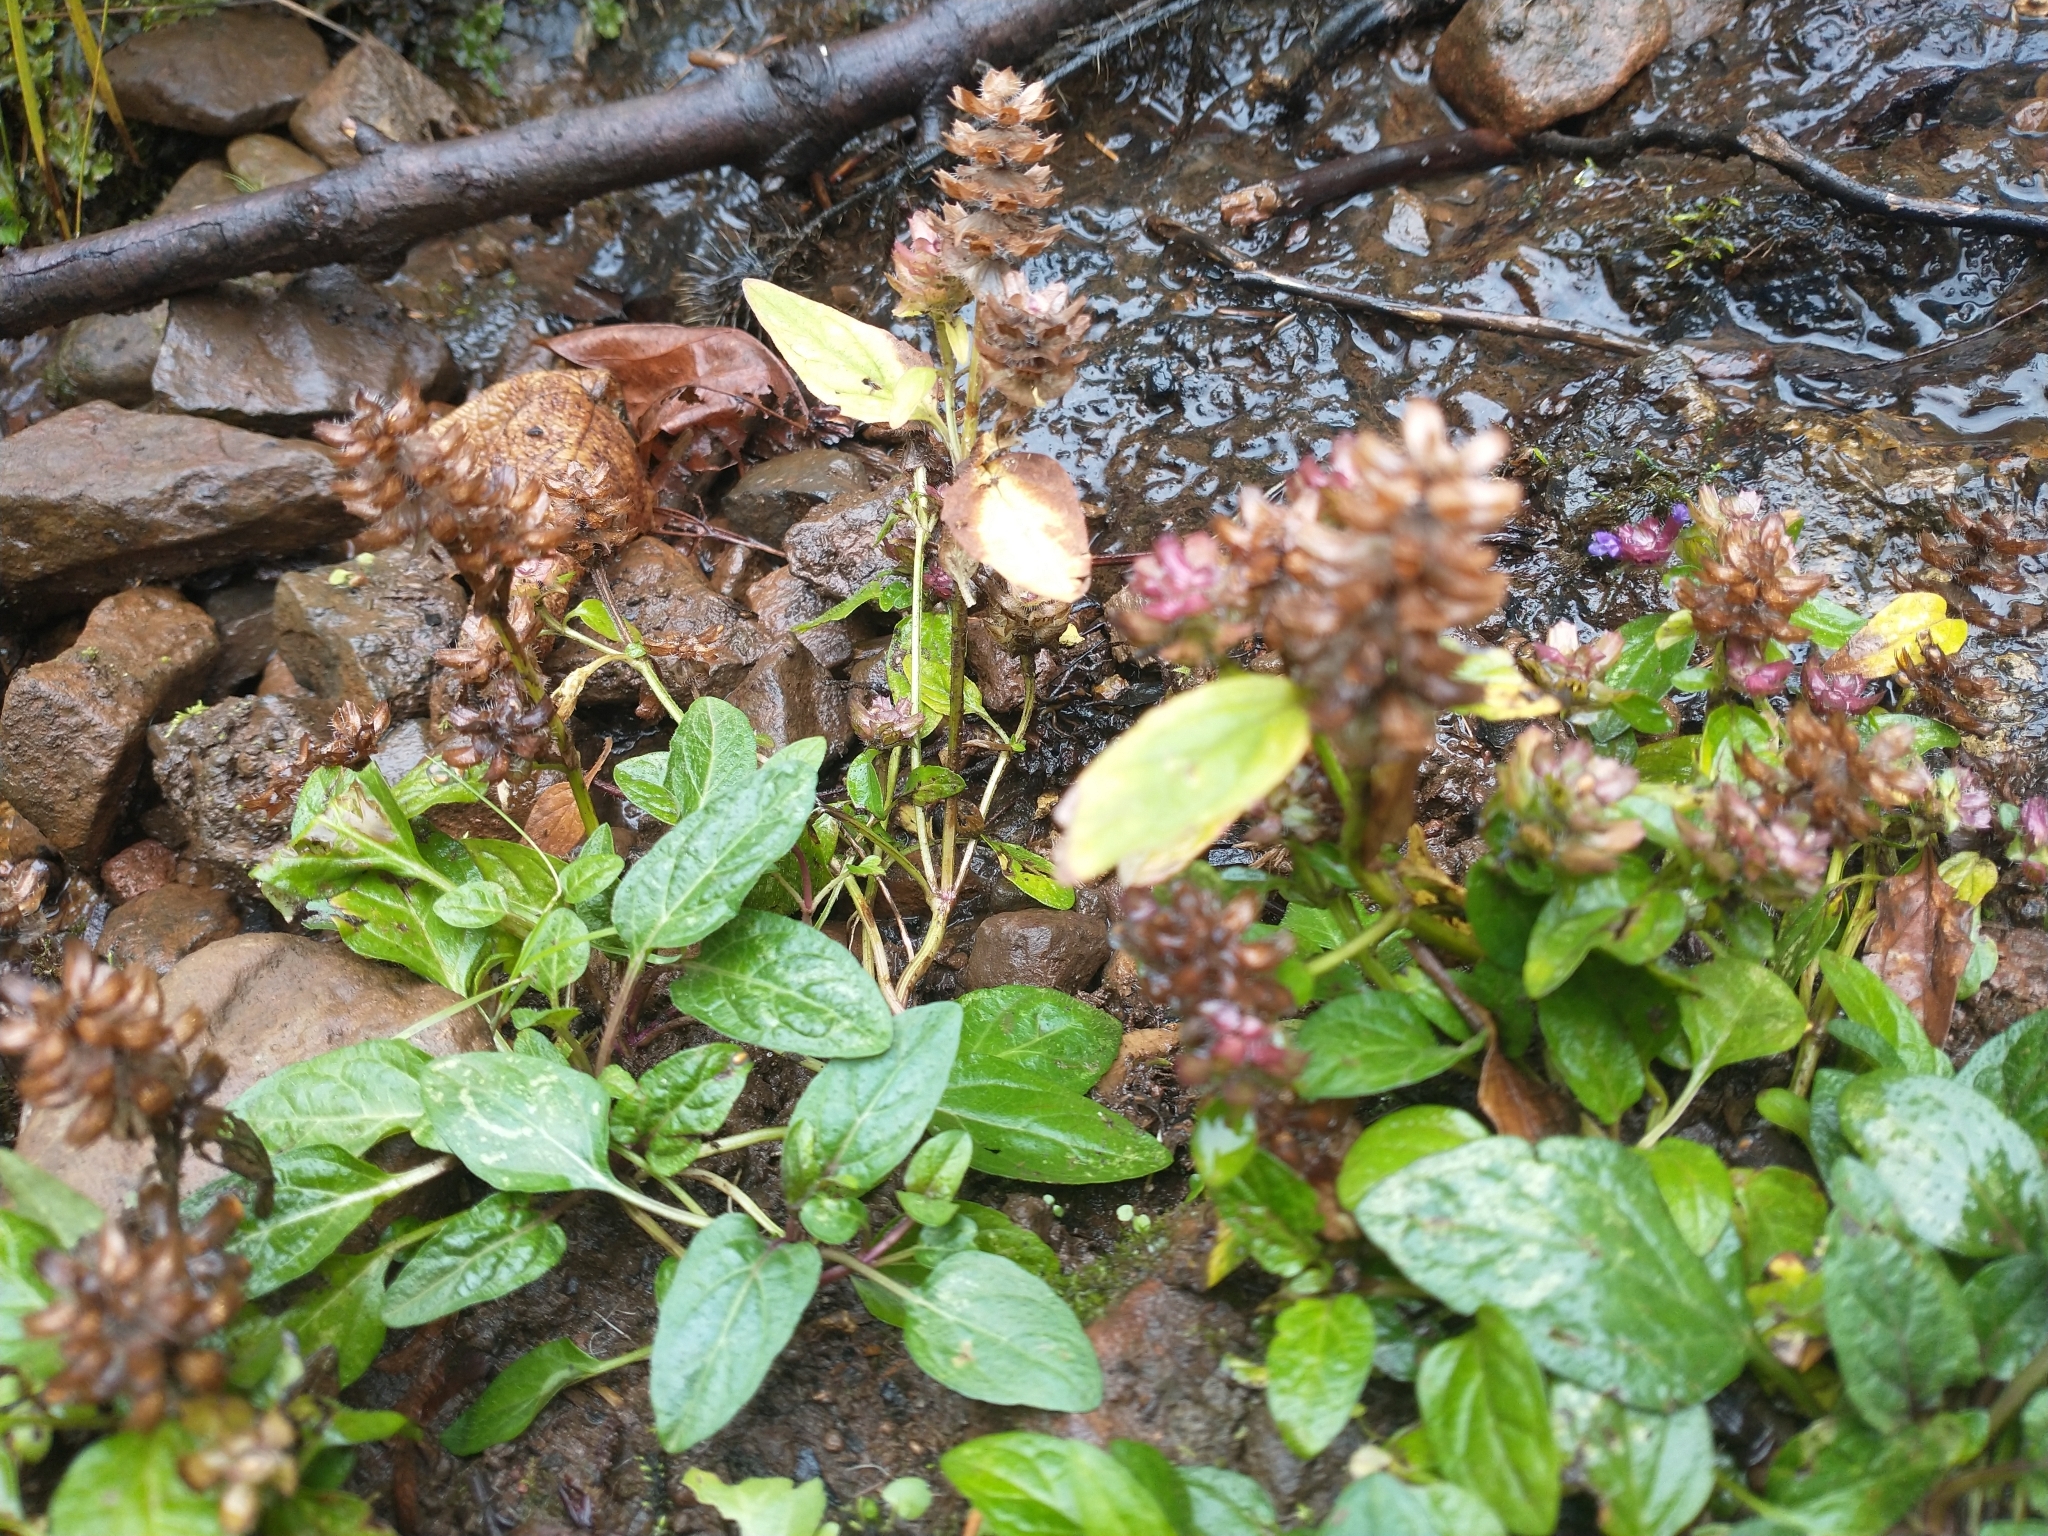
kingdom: Plantae
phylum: Tracheophyta
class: Magnoliopsida
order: Lamiales
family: Lamiaceae
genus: Prunella
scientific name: Prunella vulgaris
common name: Heal-all
